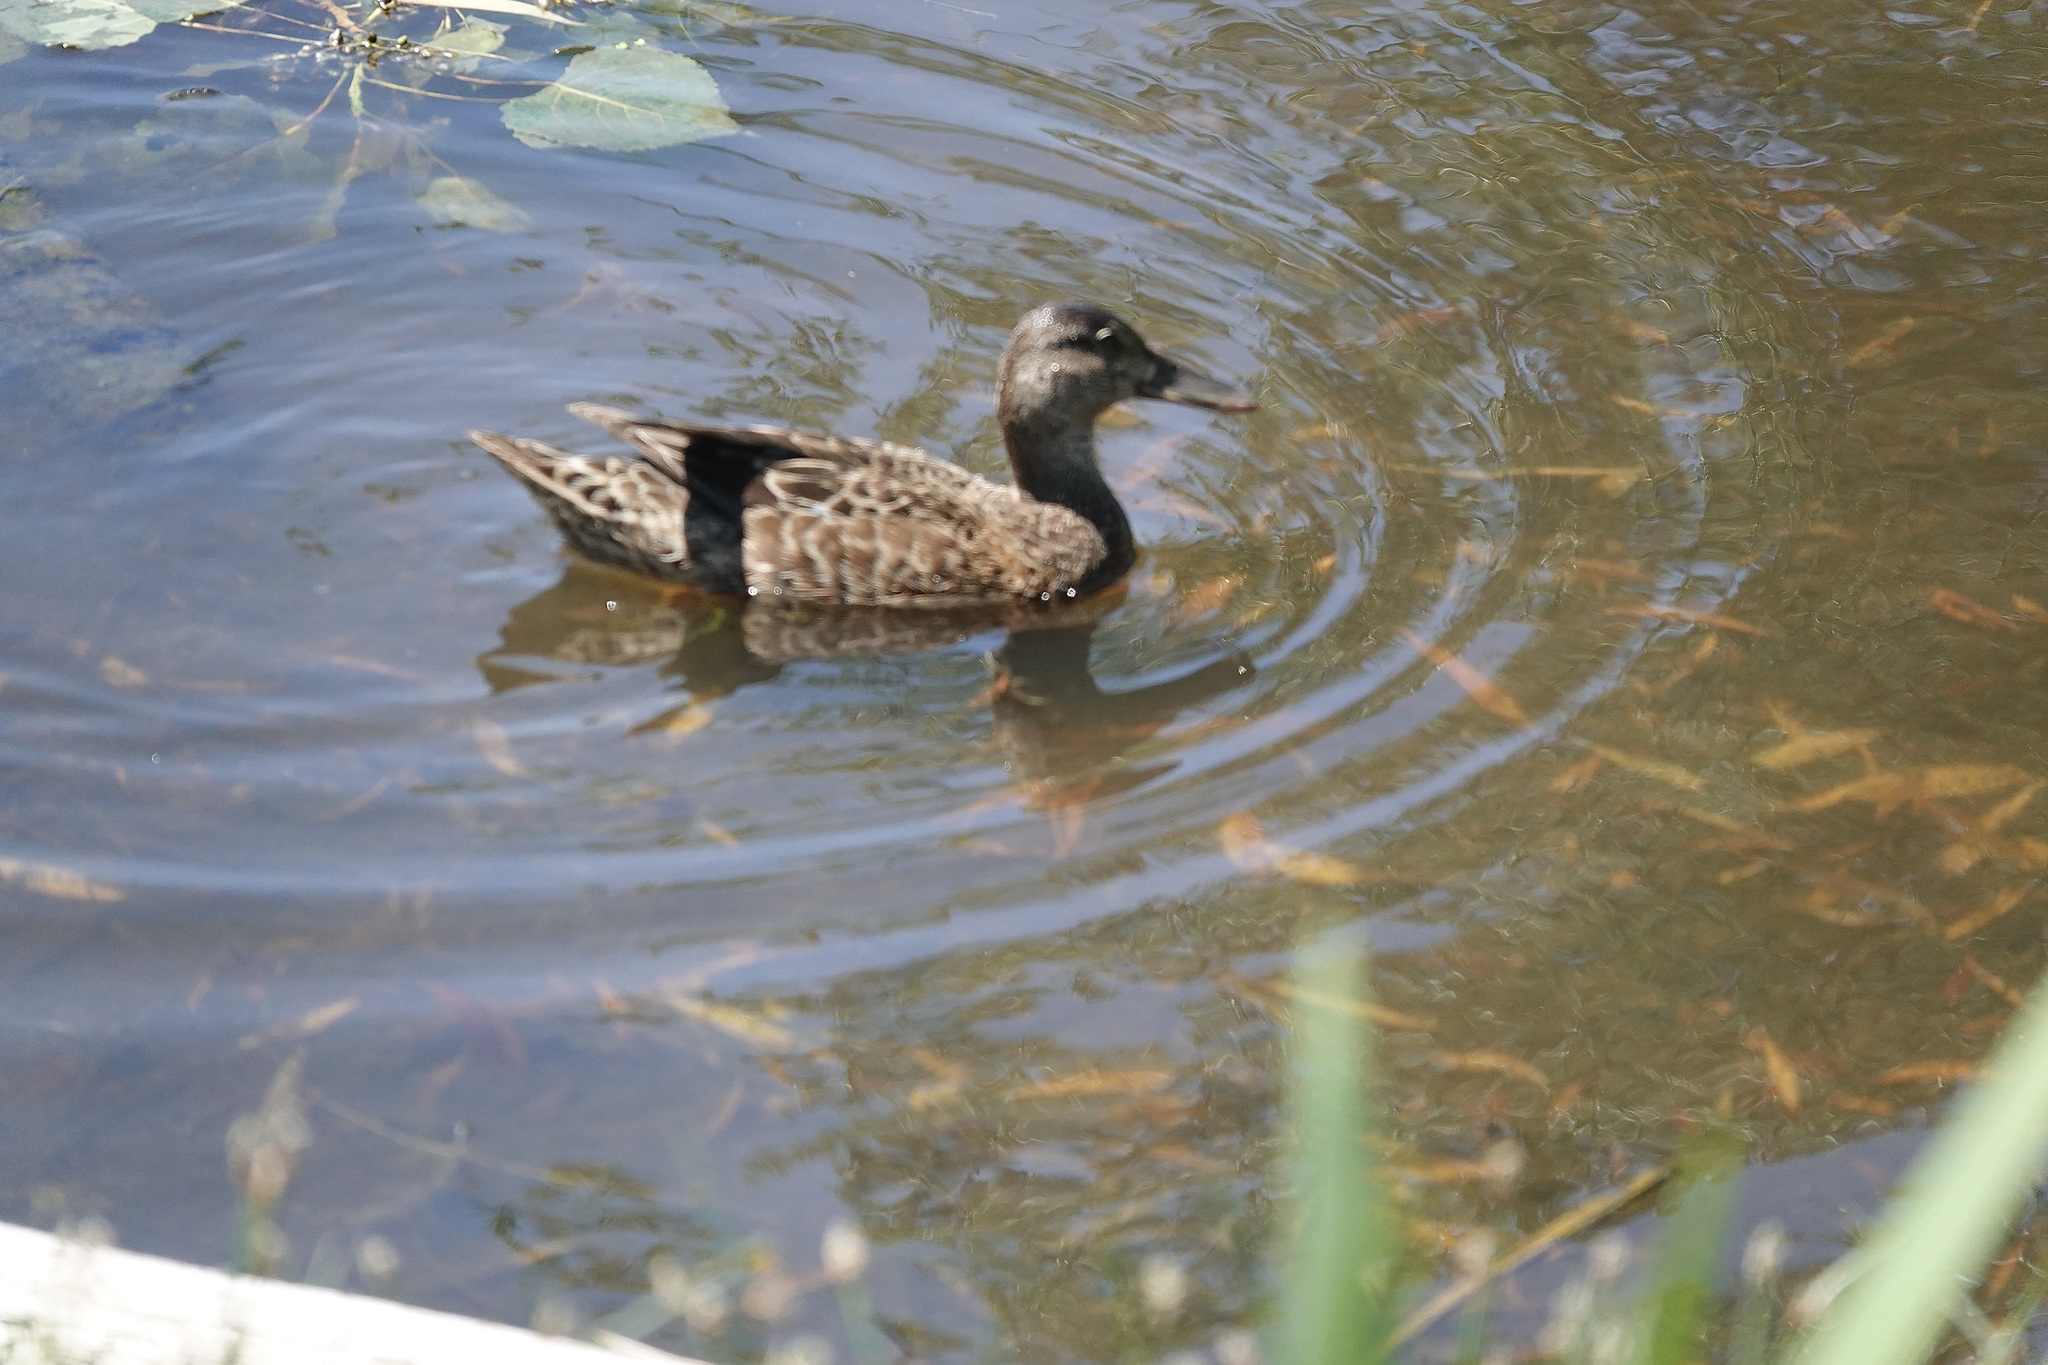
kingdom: Animalia
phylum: Chordata
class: Aves
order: Anseriformes
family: Anatidae
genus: Mareca
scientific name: Mareca strepera
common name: Gadwall
